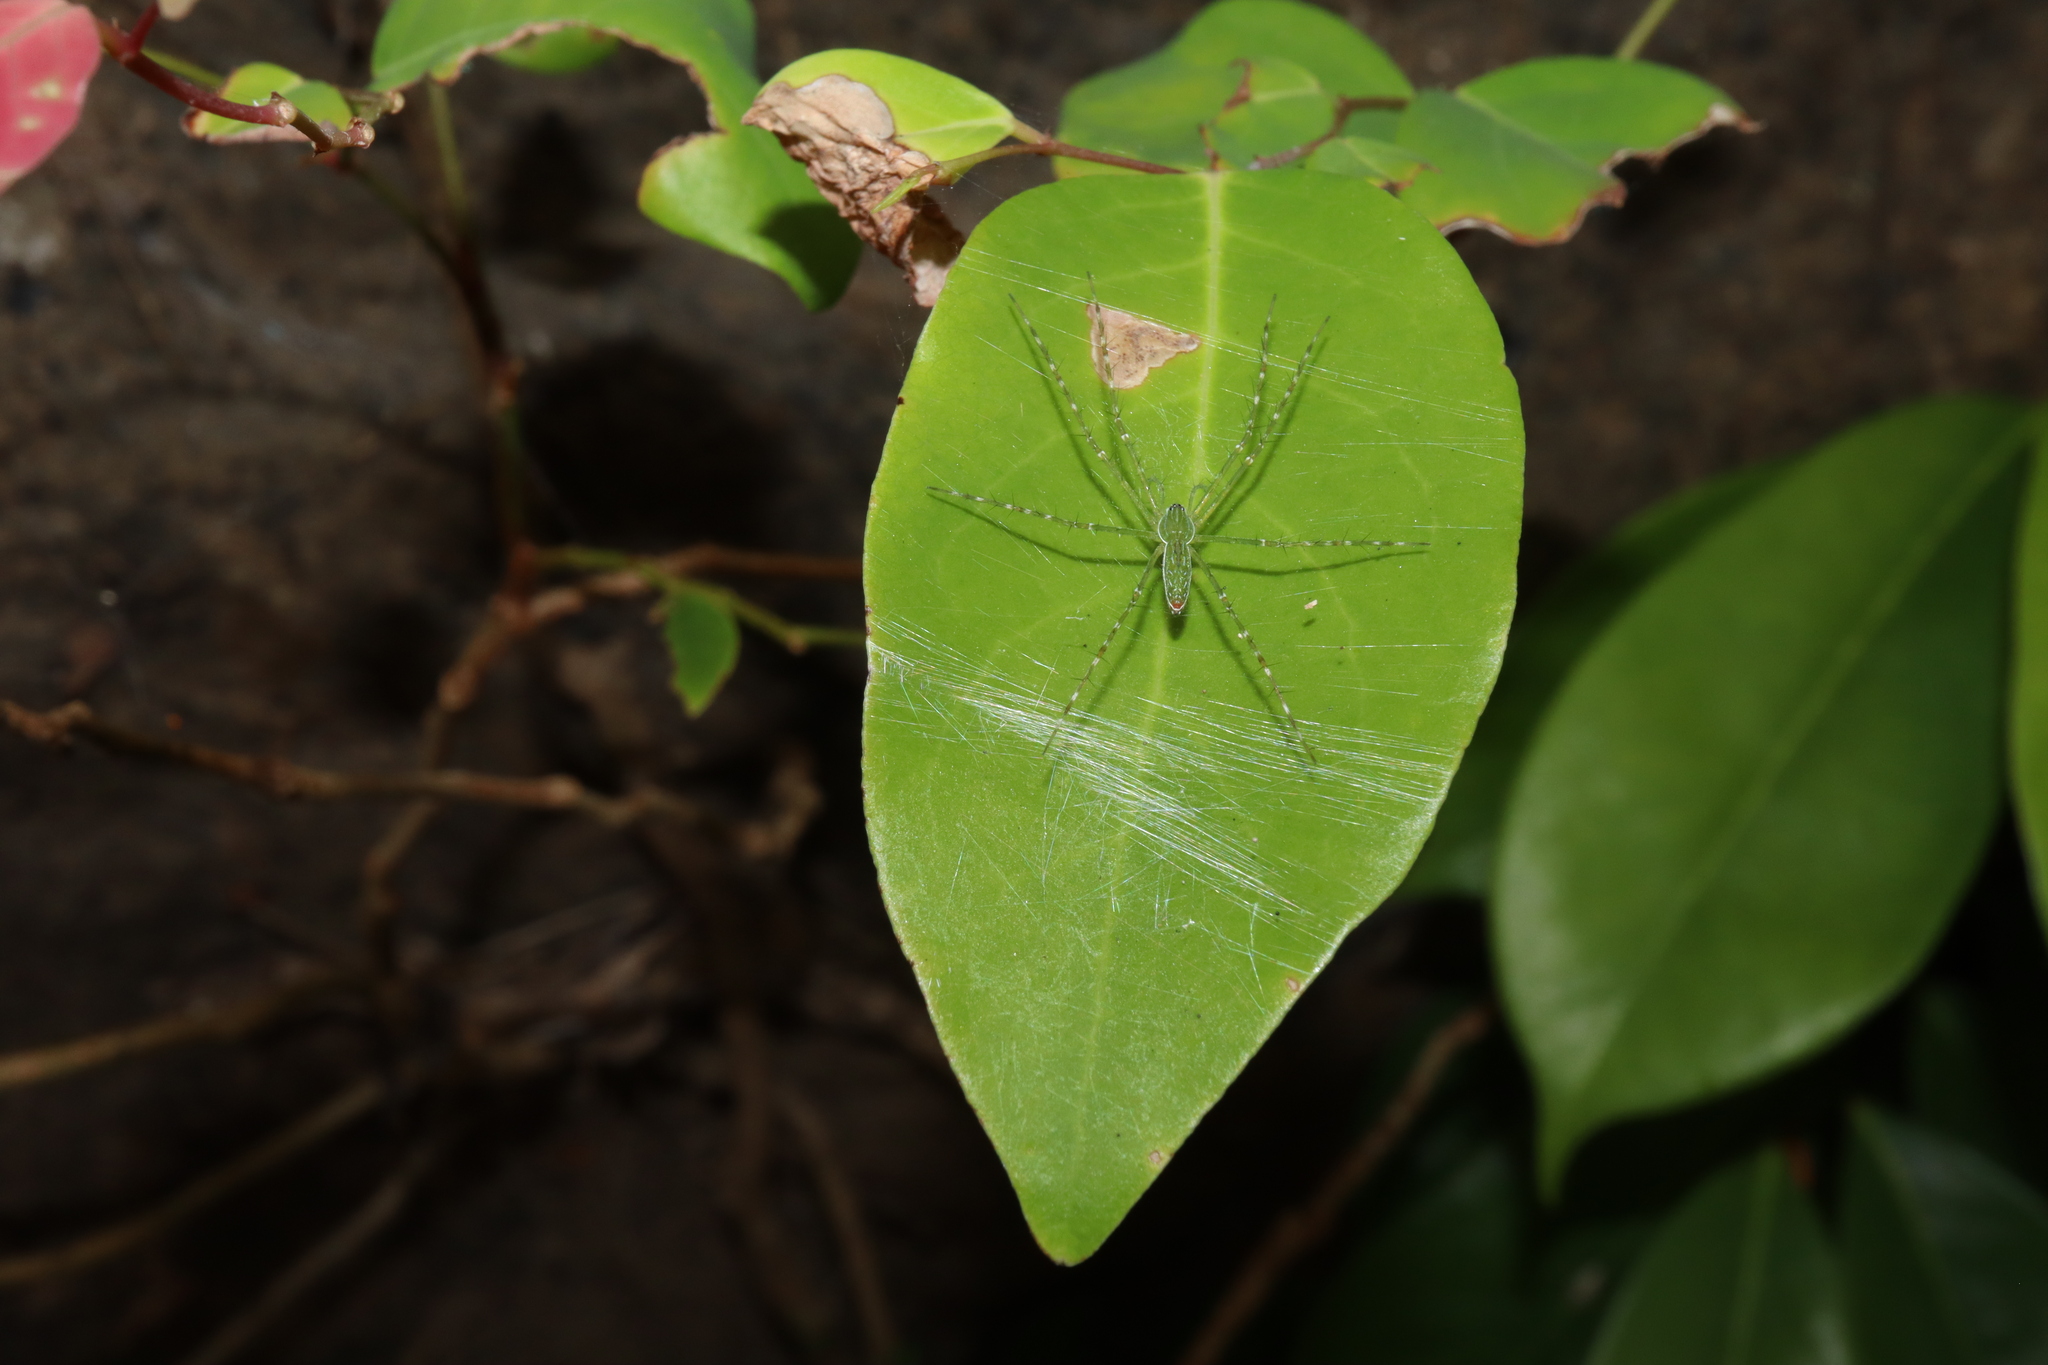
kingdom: Animalia
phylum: Arthropoda
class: Arachnida
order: Araneae
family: Pisauridae
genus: Hygropoda
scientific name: Hygropoda lineata
